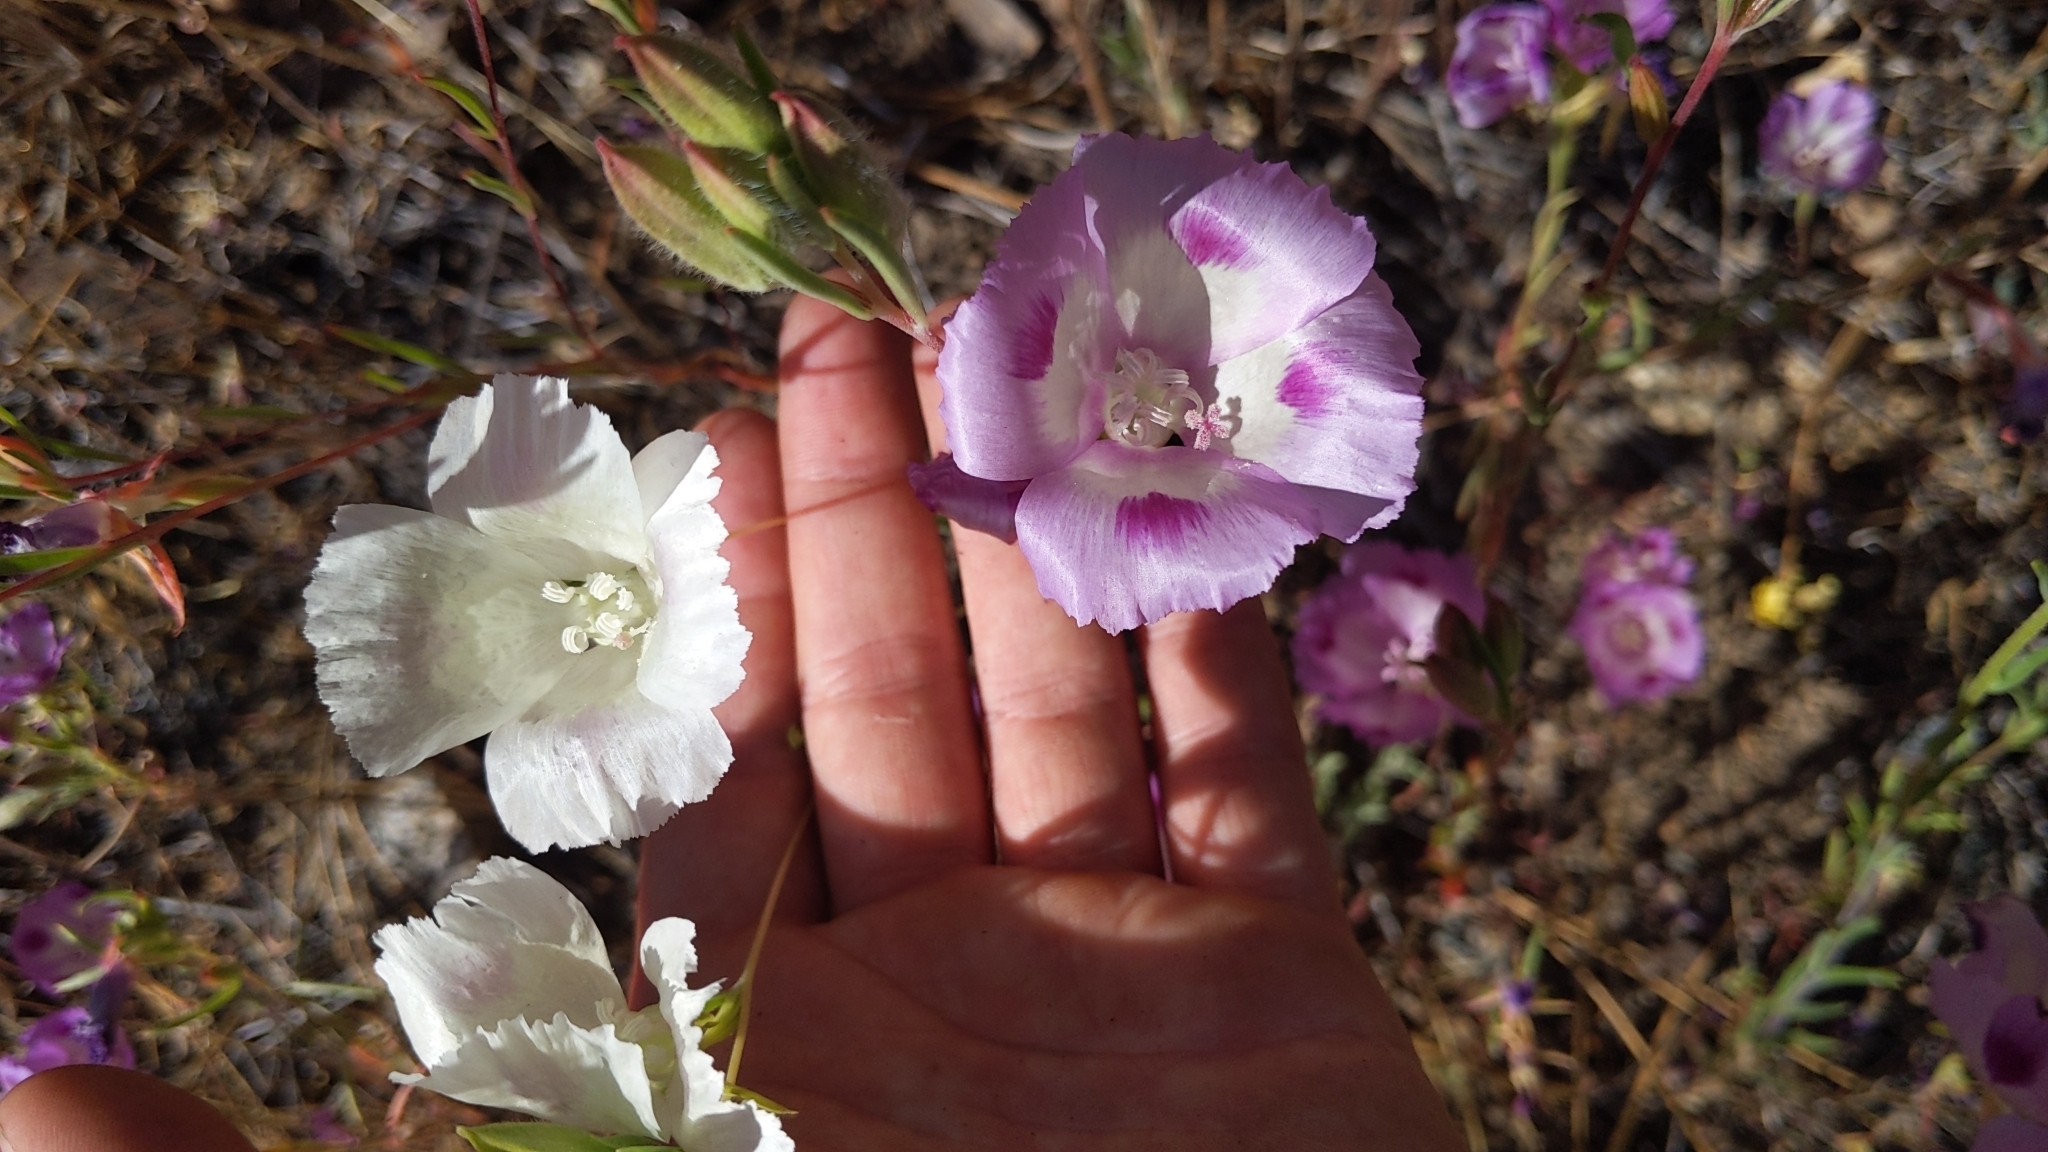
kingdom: Plantae
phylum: Tracheophyta
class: Magnoliopsida
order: Myrtales
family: Onagraceae
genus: Clarkia
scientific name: Clarkia williamsonii
